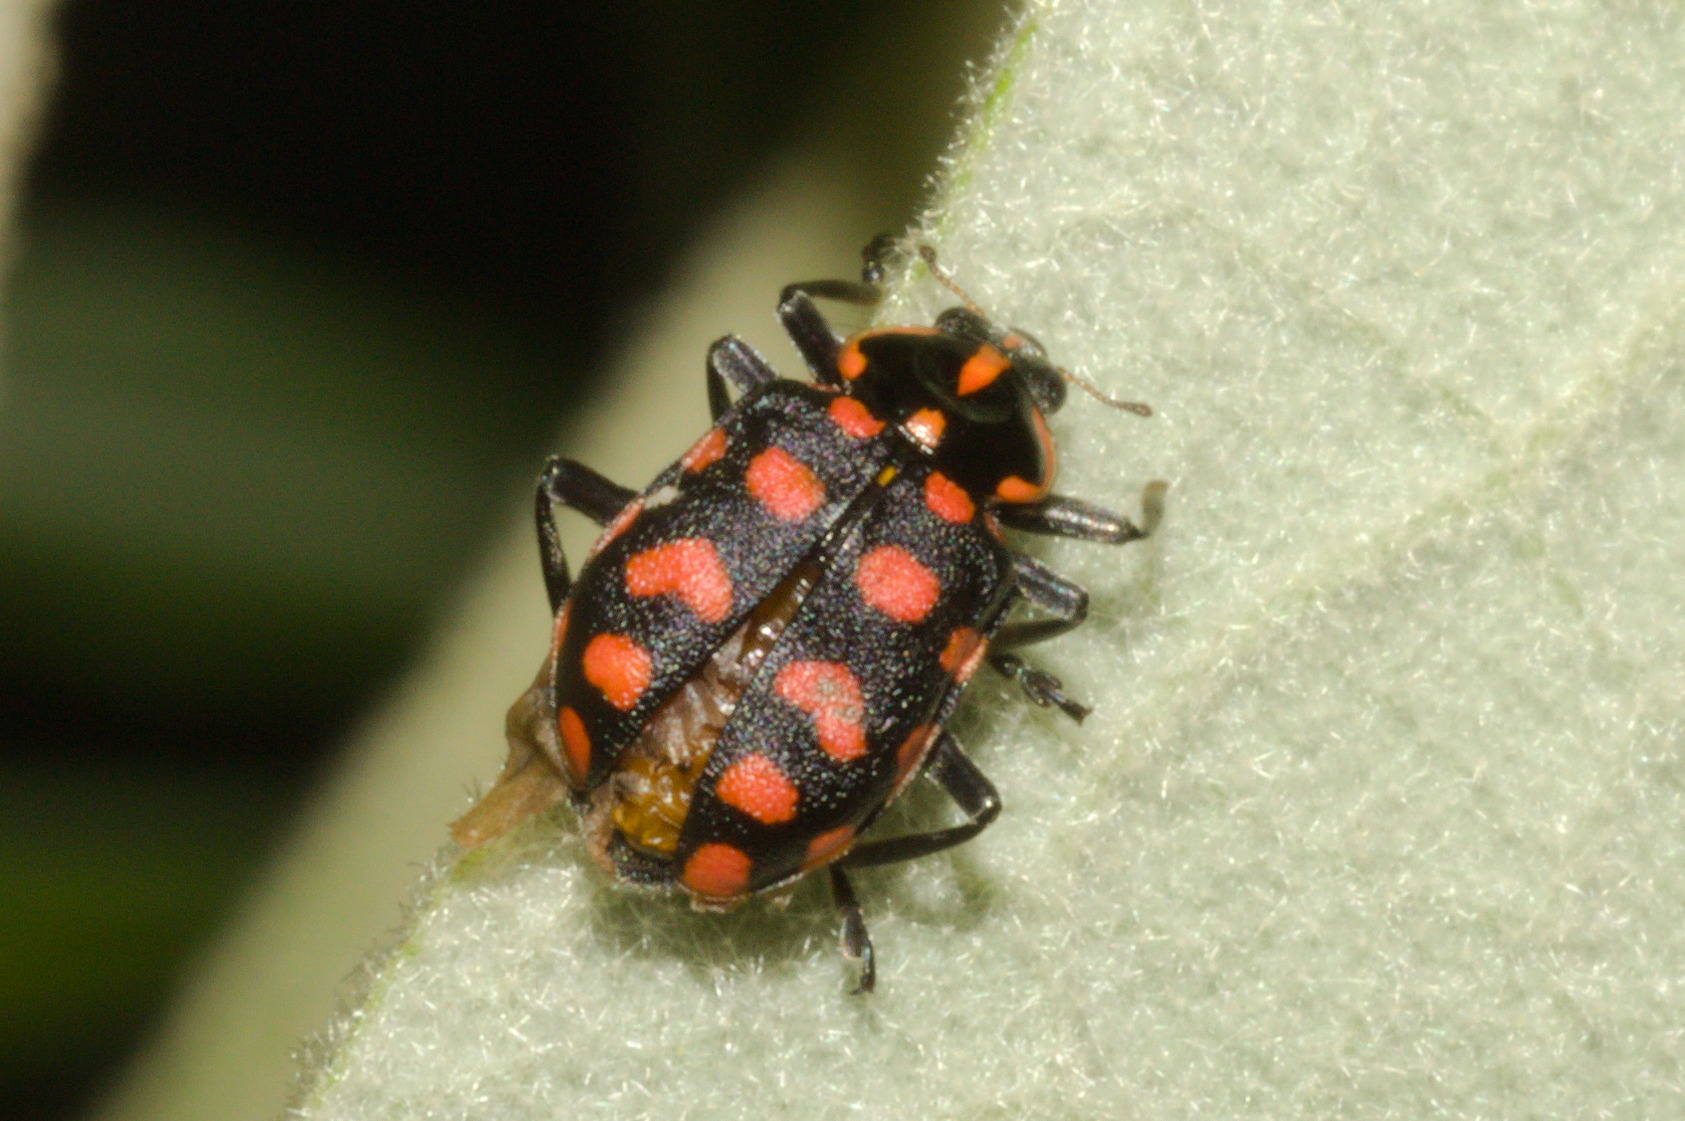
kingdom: Animalia
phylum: Arthropoda
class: Insecta
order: Coleoptera
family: Coccinellidae
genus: Coleomegilla
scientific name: Coleomegilla
